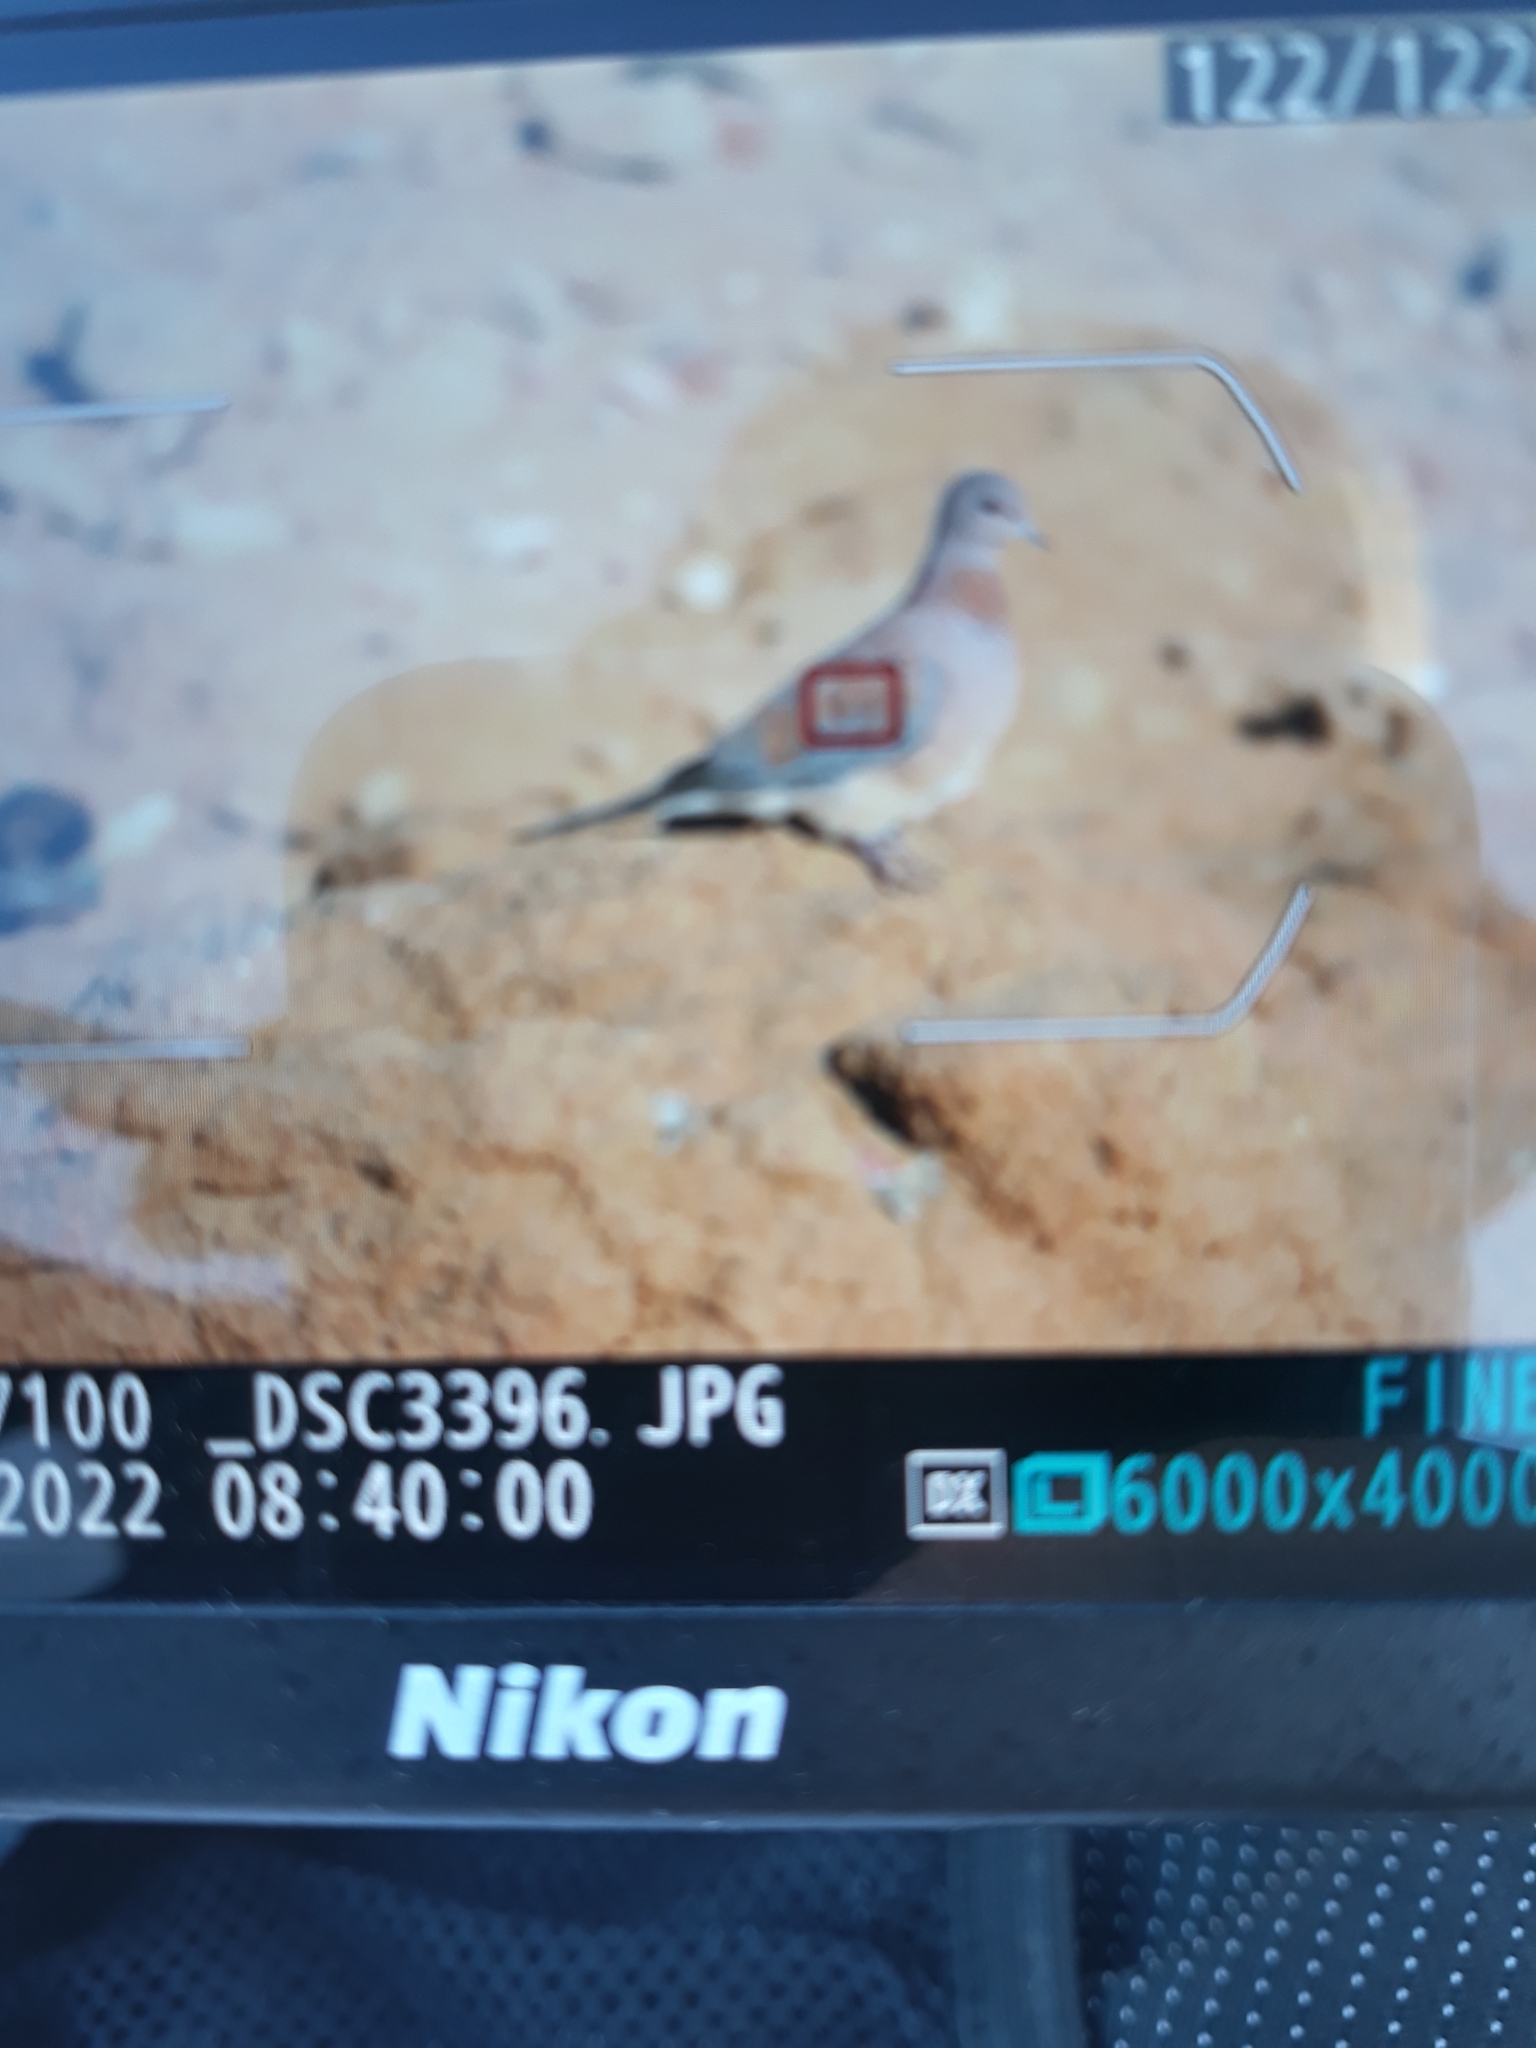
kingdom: Animalia
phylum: Chordata
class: Aves
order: Columbiformes
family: Columbidae
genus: Spilopelia
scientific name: Spilopelia senegalensis
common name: Laughing dove
